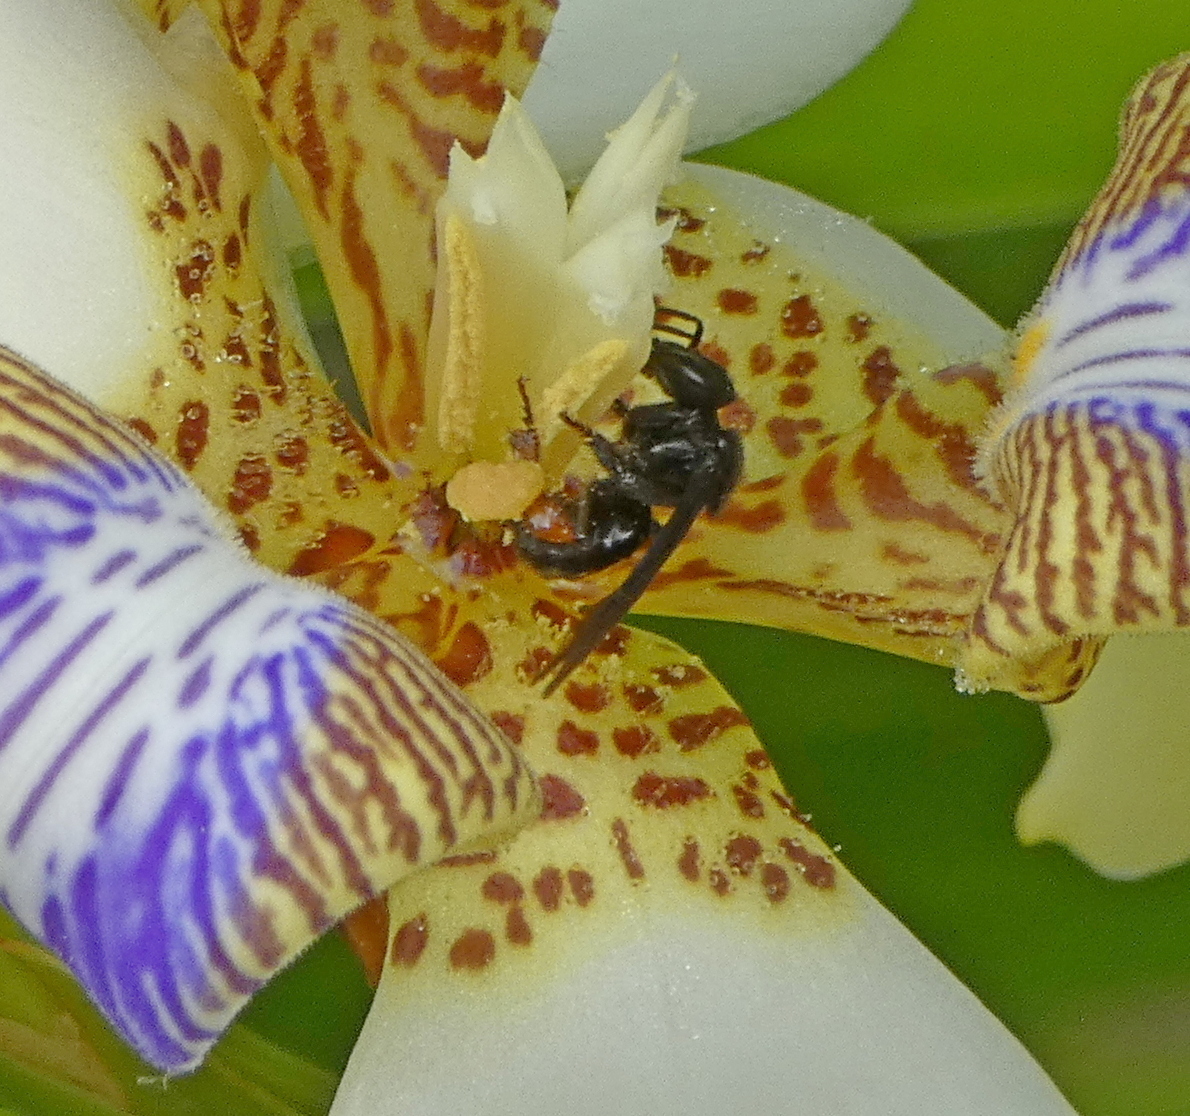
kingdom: Animalia
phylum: Arthropoda
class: Insecta
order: Hymenoptera
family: Apidae
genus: Trigona
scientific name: Trigona spinipes
